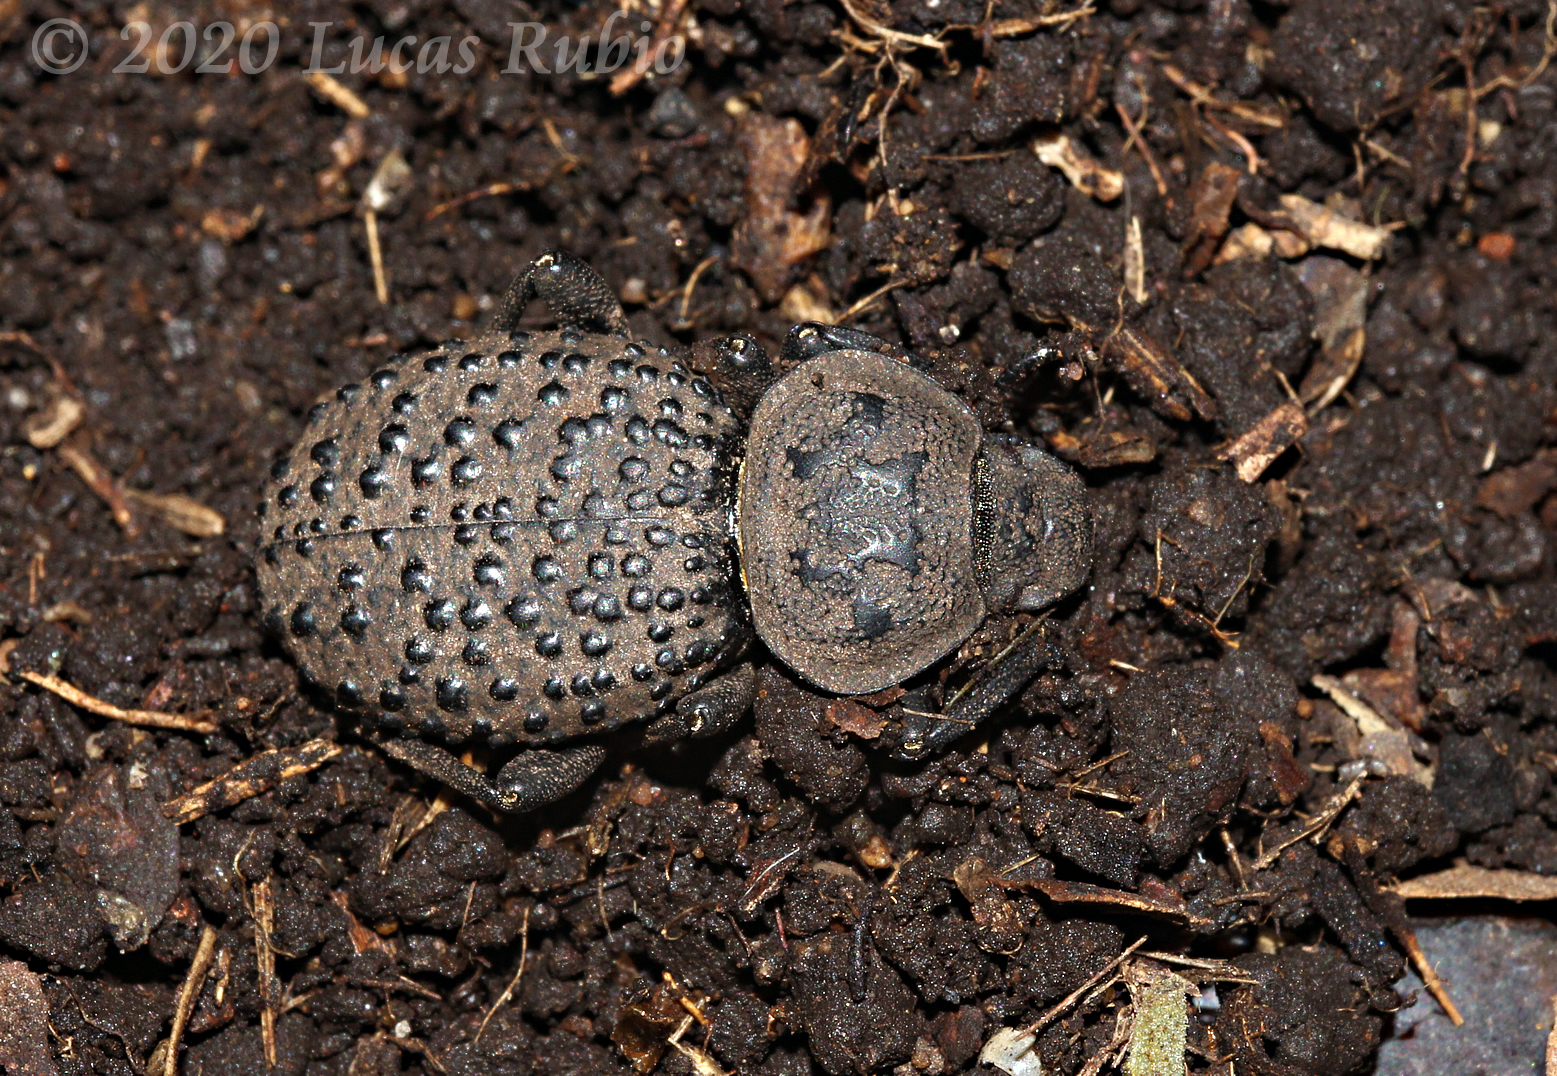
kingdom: Animalia
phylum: Arthropoda
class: Insecta
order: Coleoptera
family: Tenebrionidae
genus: Scotobius
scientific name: Scotobius pilularius
